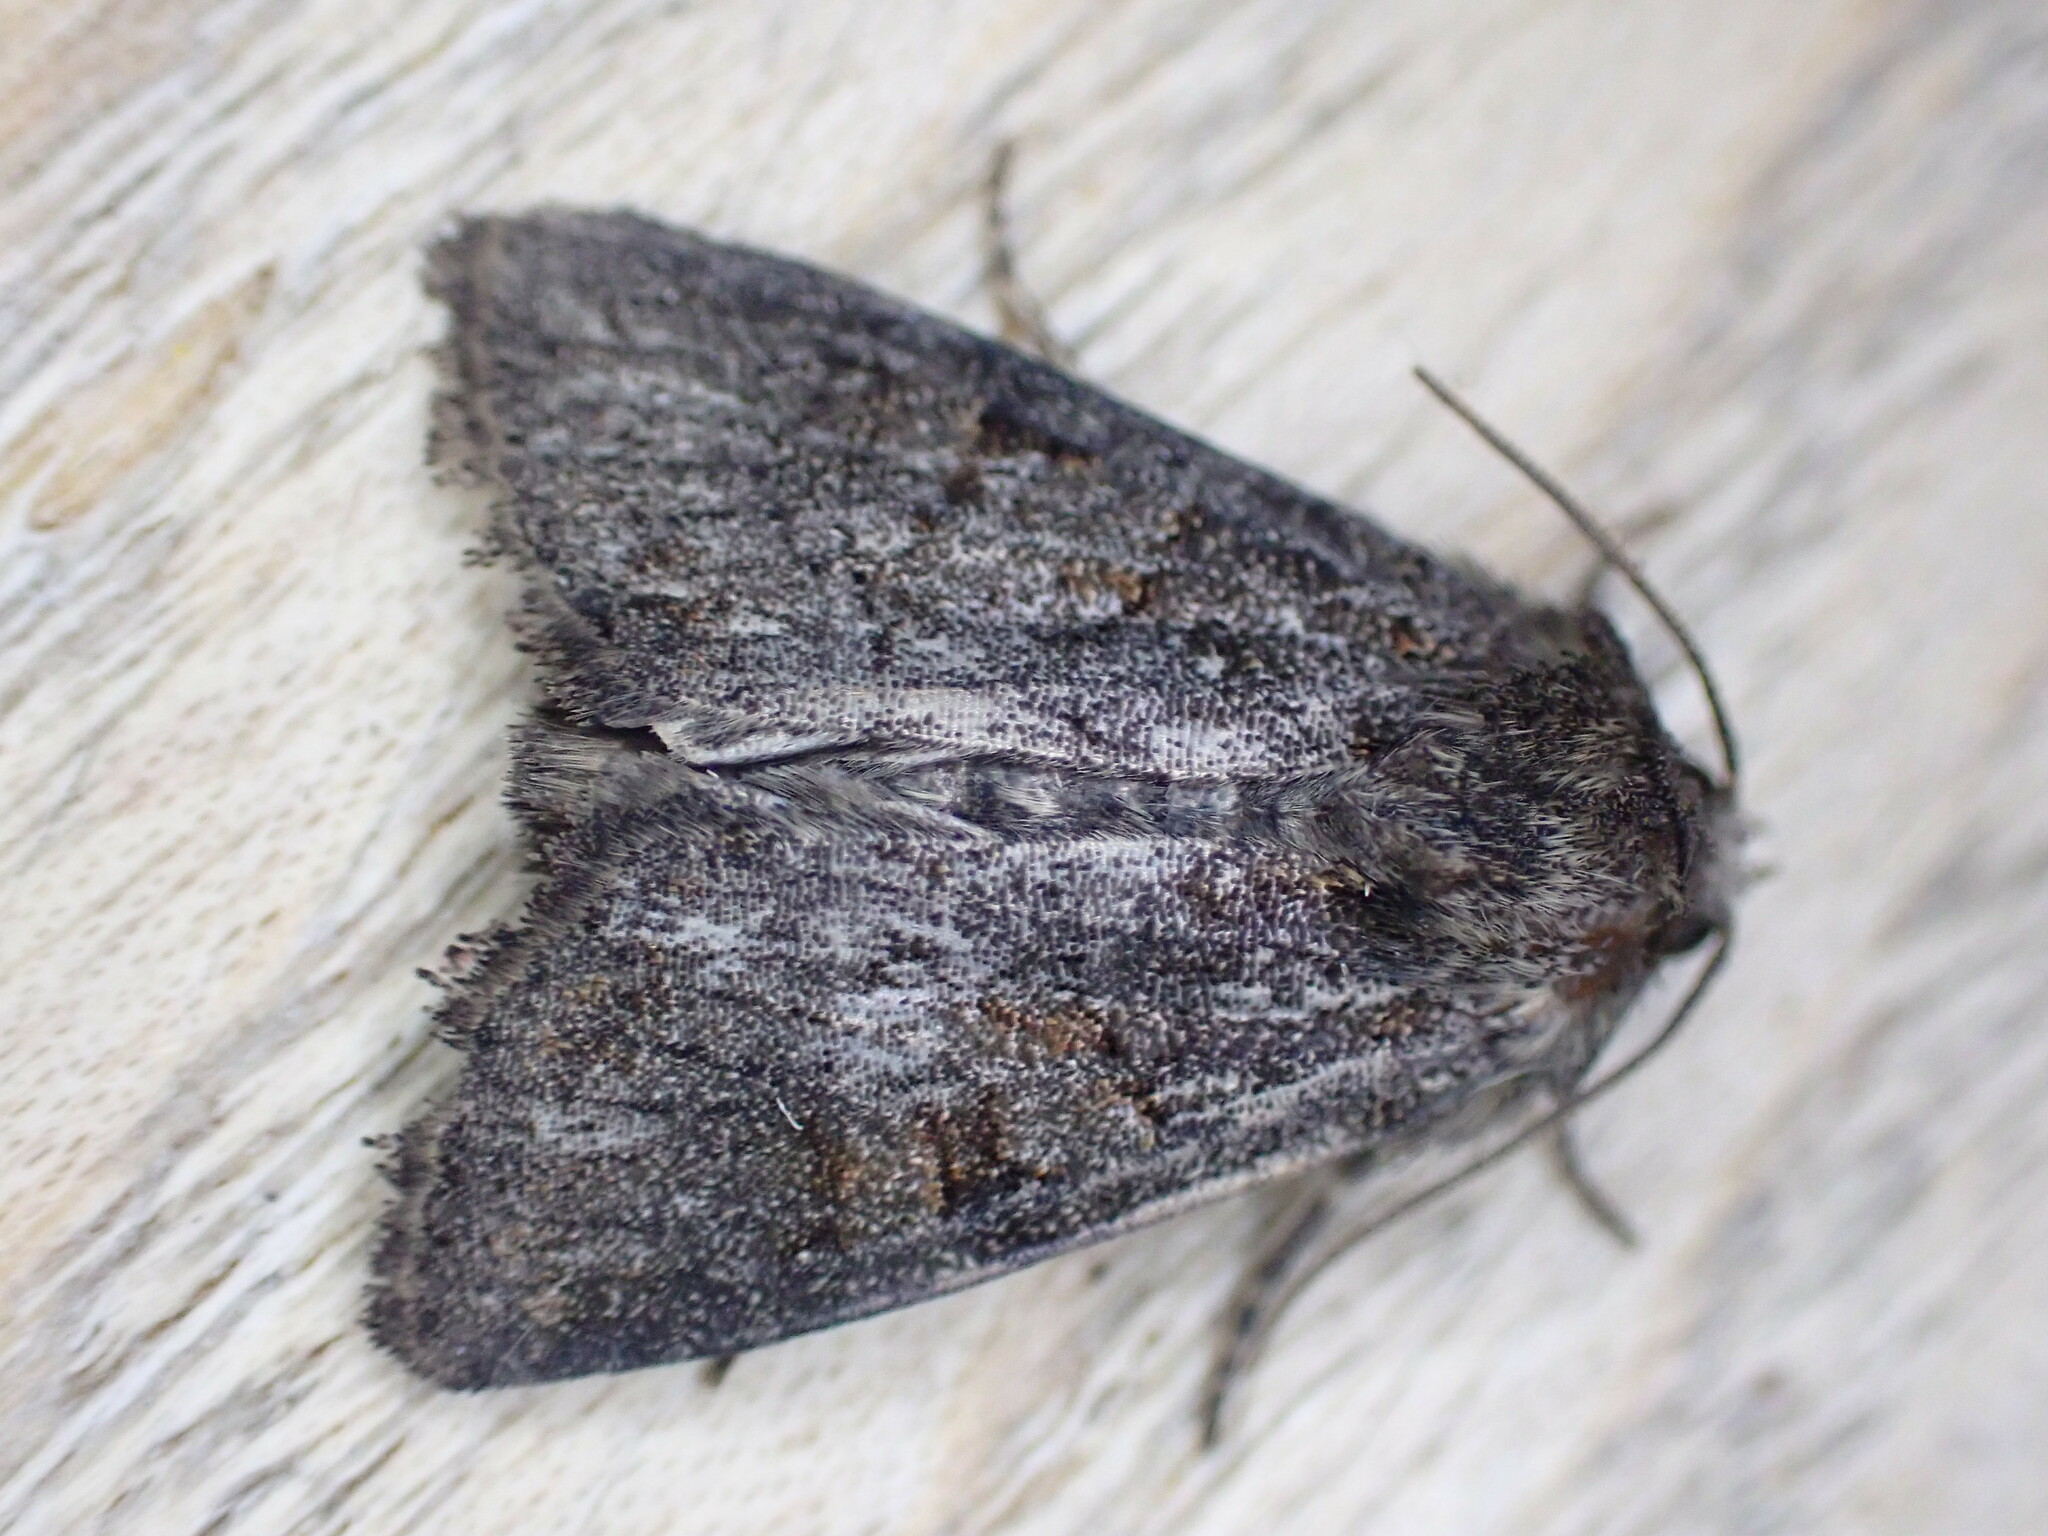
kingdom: Animalia
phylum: Arthropoda
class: Insecta
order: Lepidoptera
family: Noctuidae
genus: Oligia
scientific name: Oligia latruncula
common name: Tawny marbled minor
